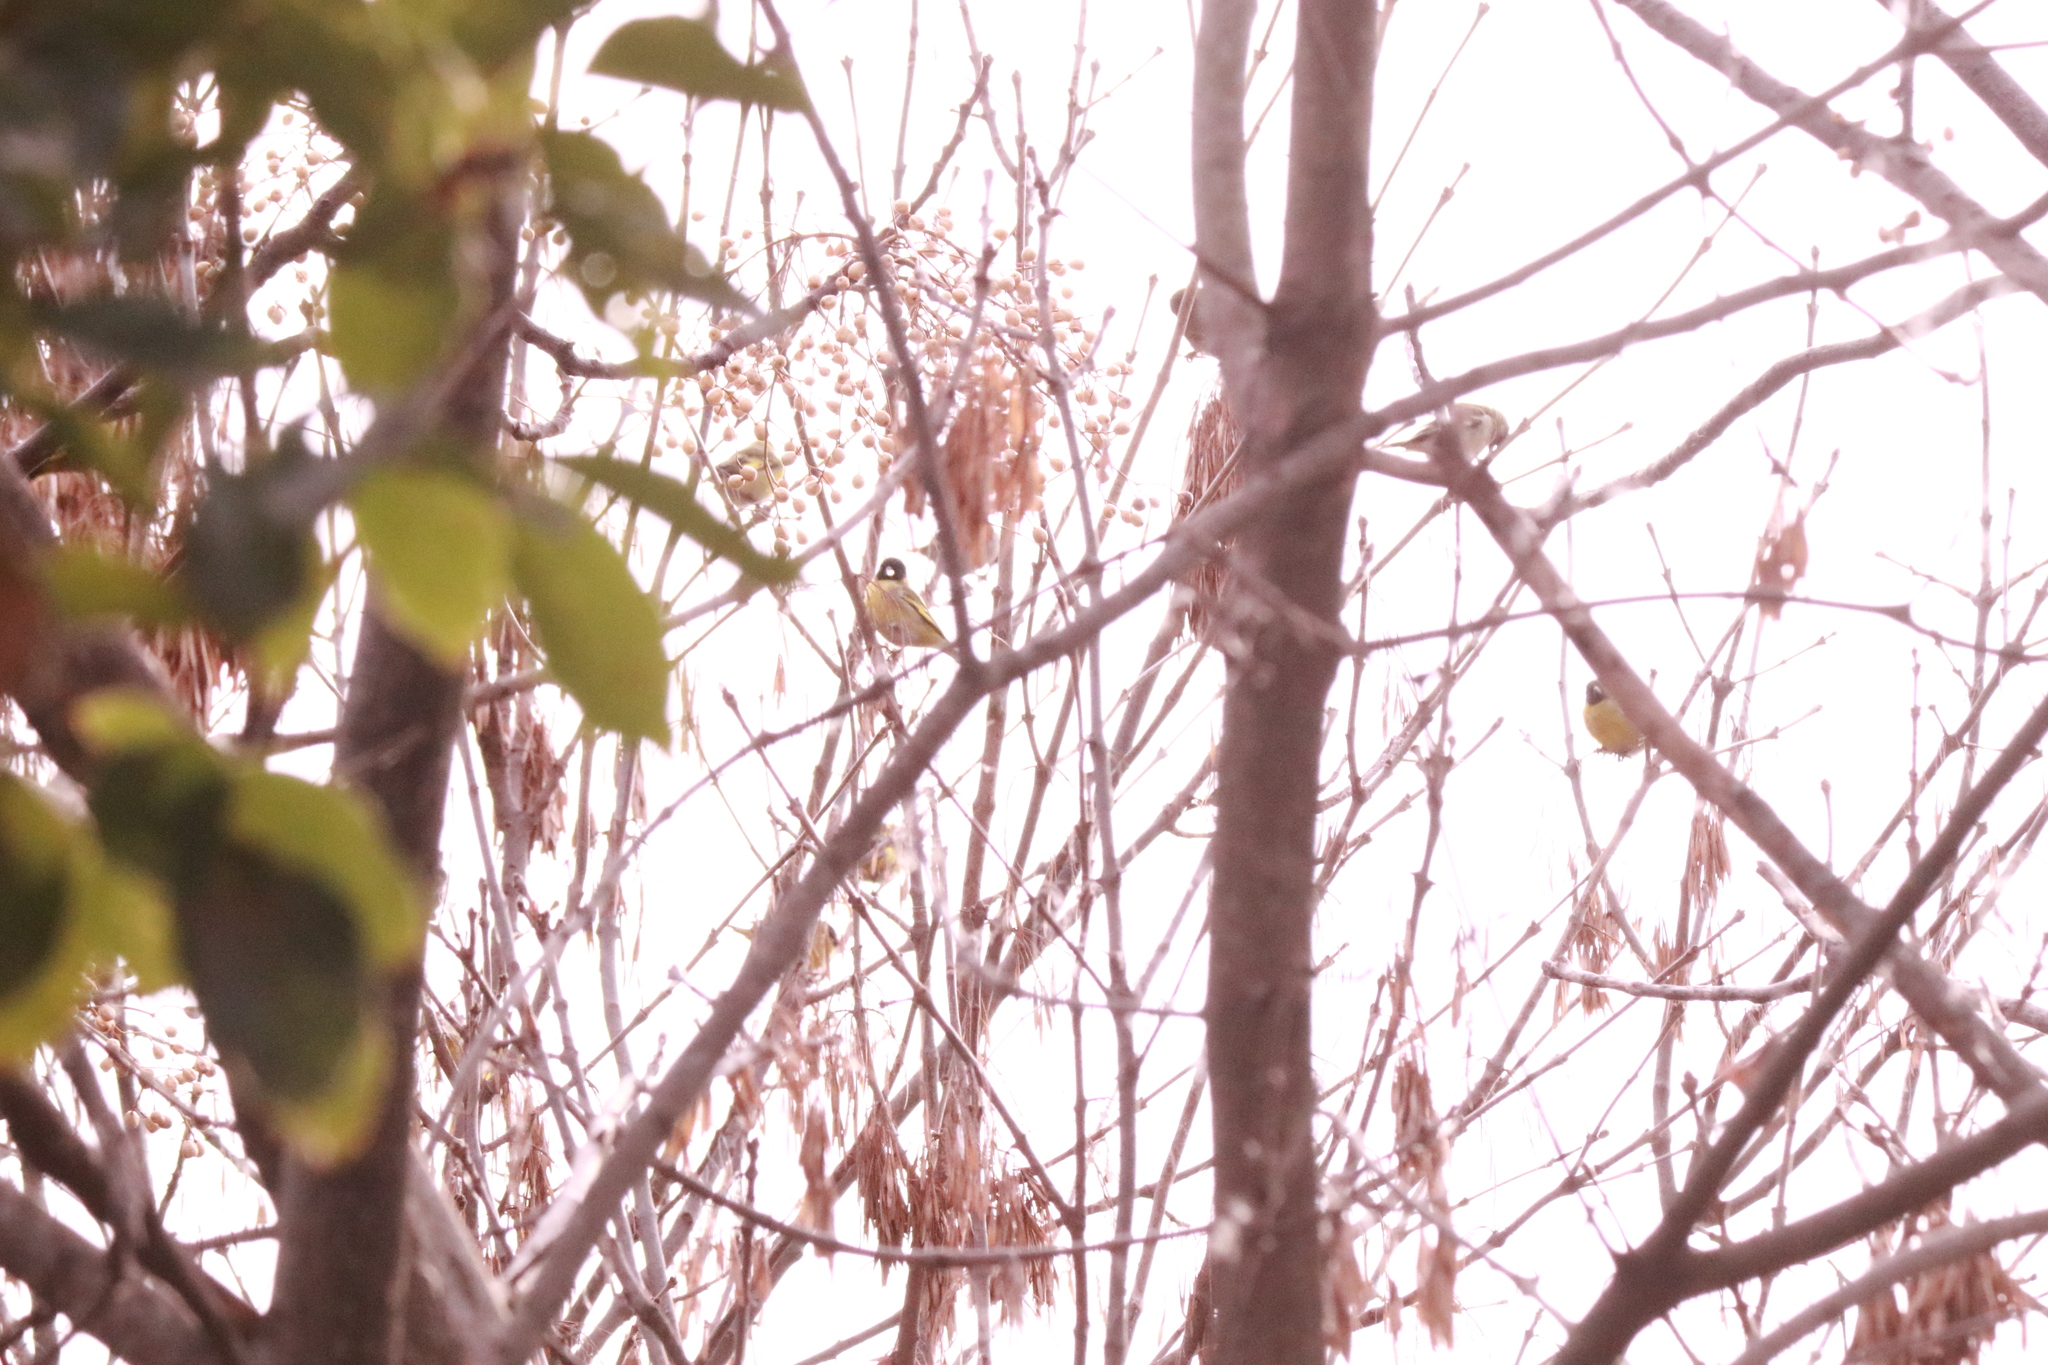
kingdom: Animalia
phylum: Chordata
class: Aves
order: Passeriformes
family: Fringillidae
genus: Spinus
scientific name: Spinus magellanicus
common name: Hooded siskin
